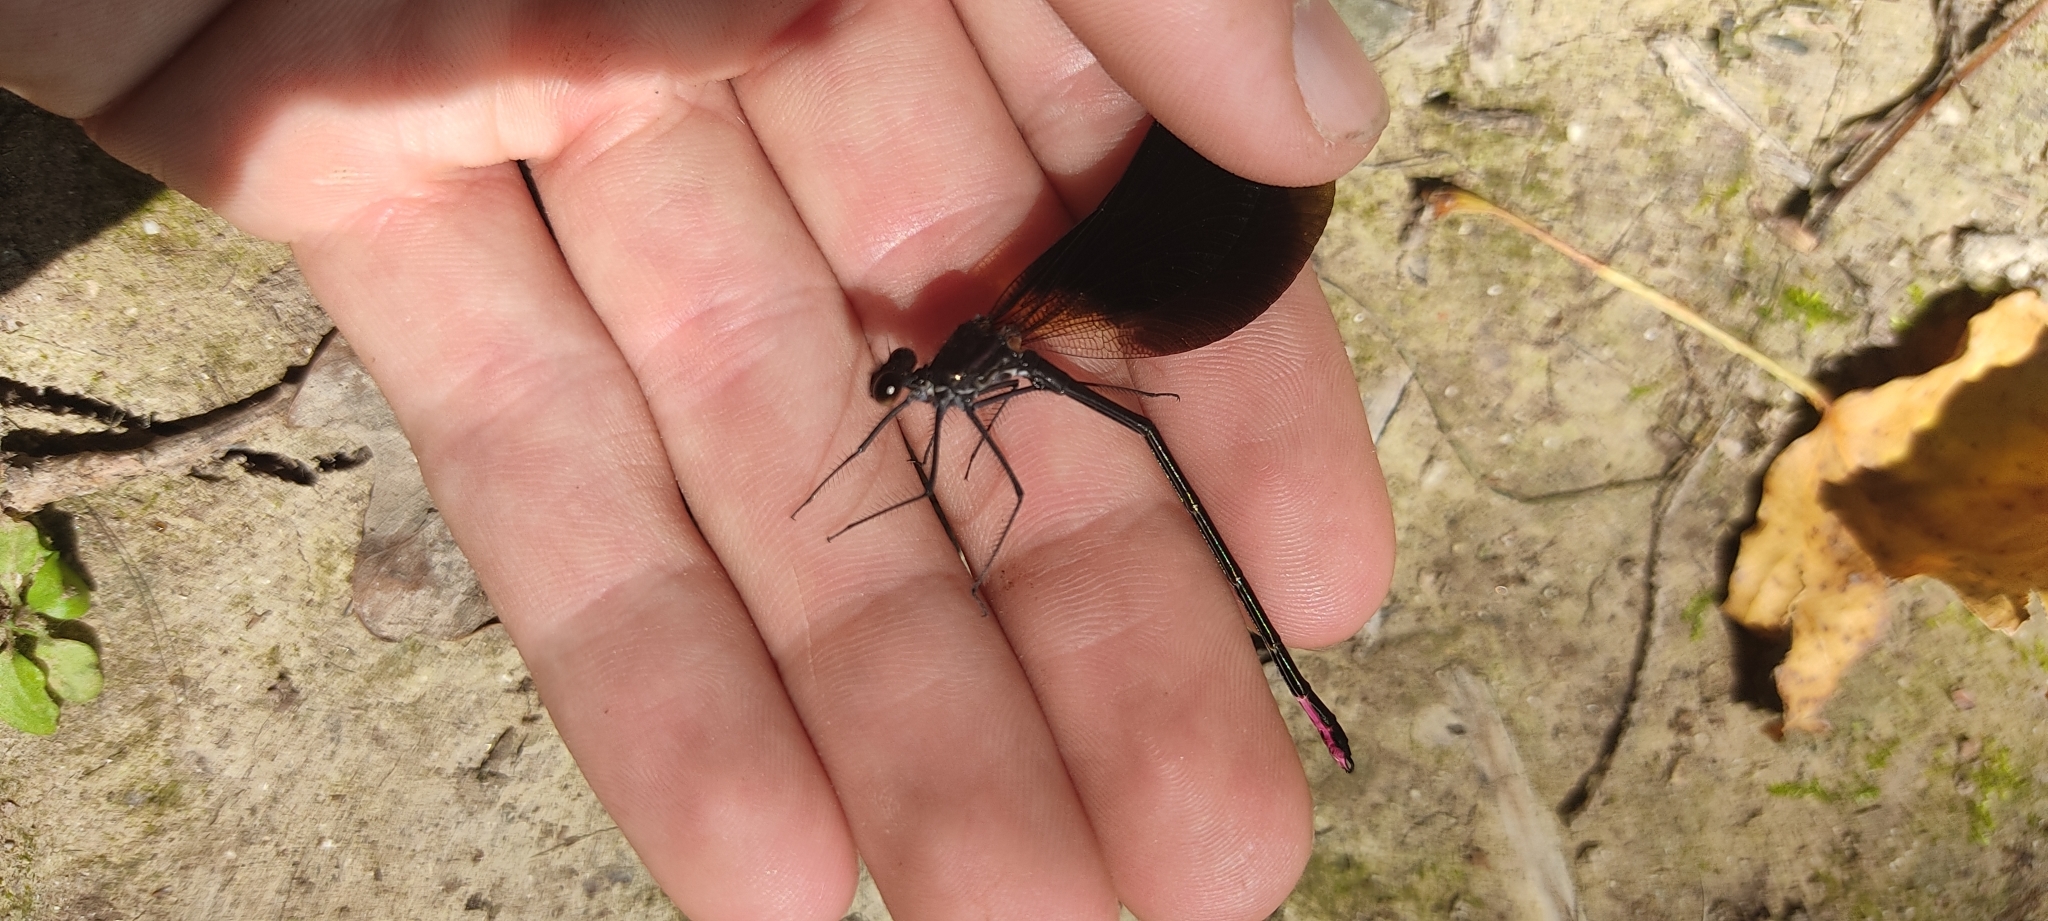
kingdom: Animalia
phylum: Arthropoda
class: Insecta
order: Odonata
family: Calopterygidae
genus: Calopteryx
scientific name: Calopteryx haemorrhoidalis
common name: Copper demoiselle
